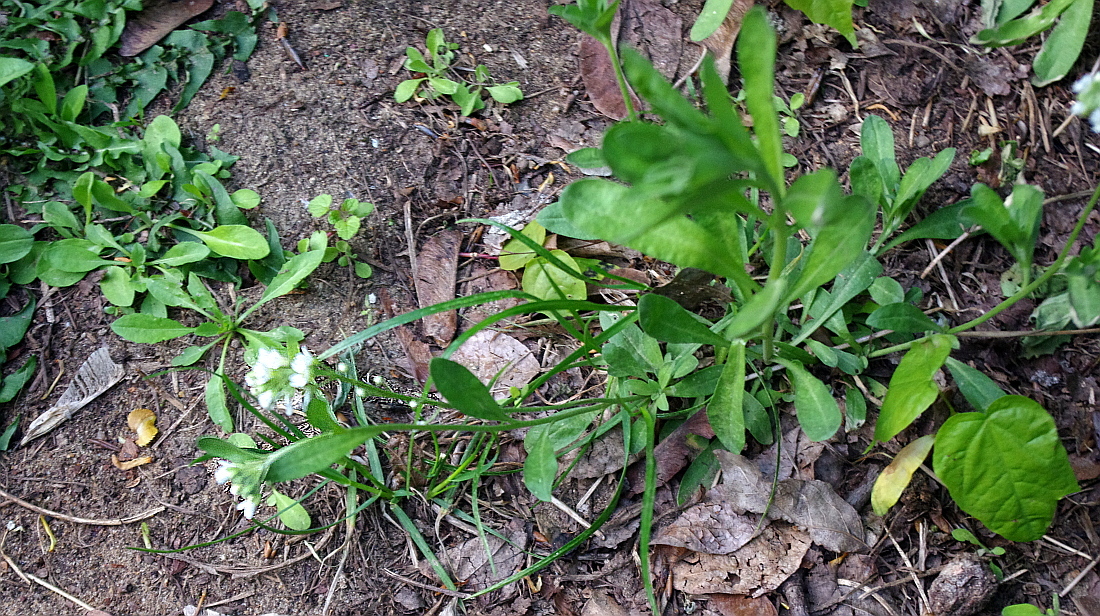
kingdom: Plantae
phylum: Tracheophyta
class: Magnoliopsida
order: Brassicales
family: Brassicaceae
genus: Berteroa
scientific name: Berteroa incana
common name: Hoary alison
